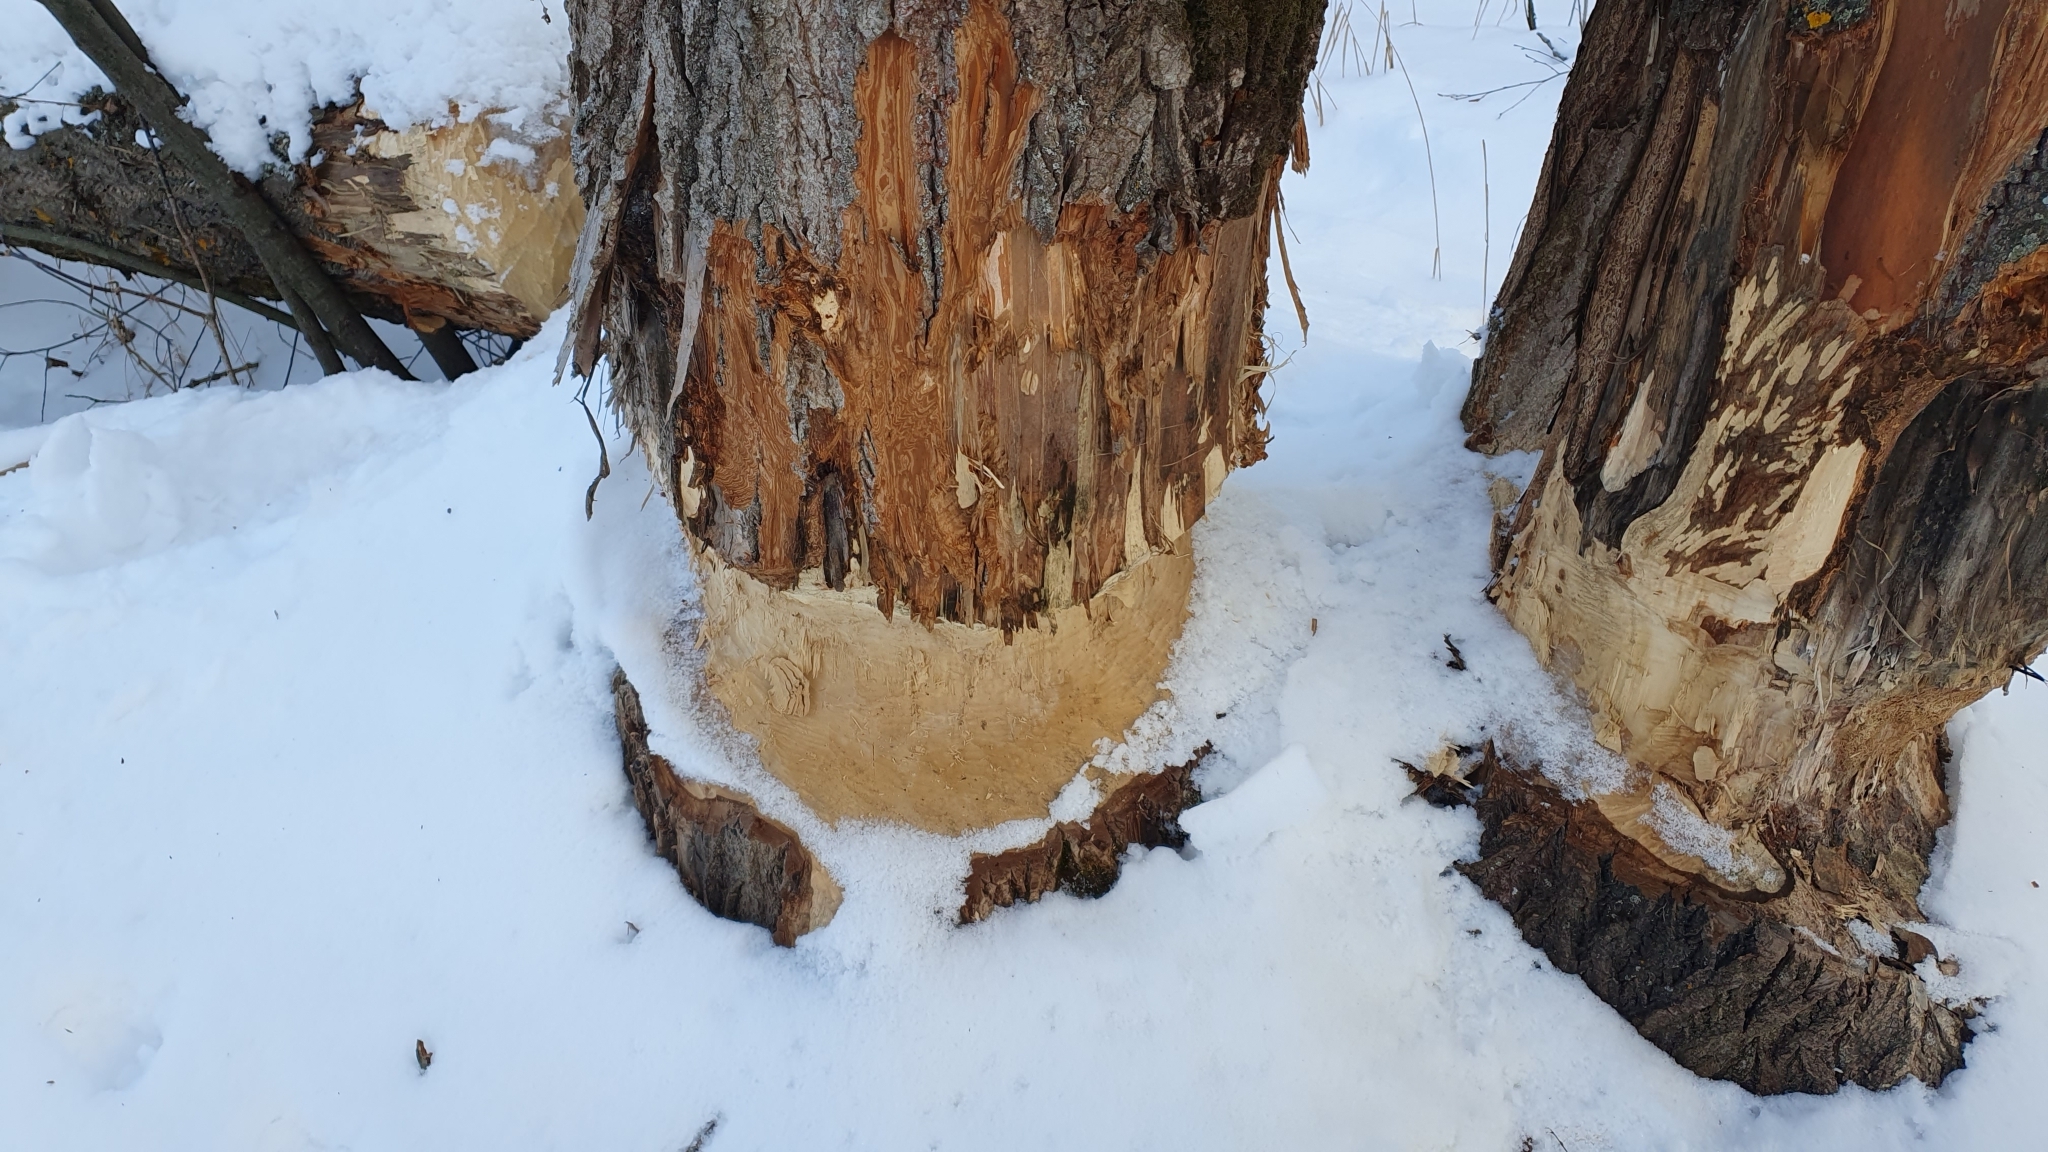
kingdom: Animalia
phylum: Chordata
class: Mammalia
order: Rodentia
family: Castoridae
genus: Castor
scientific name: Castor fiber
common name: Eurasian beaver
